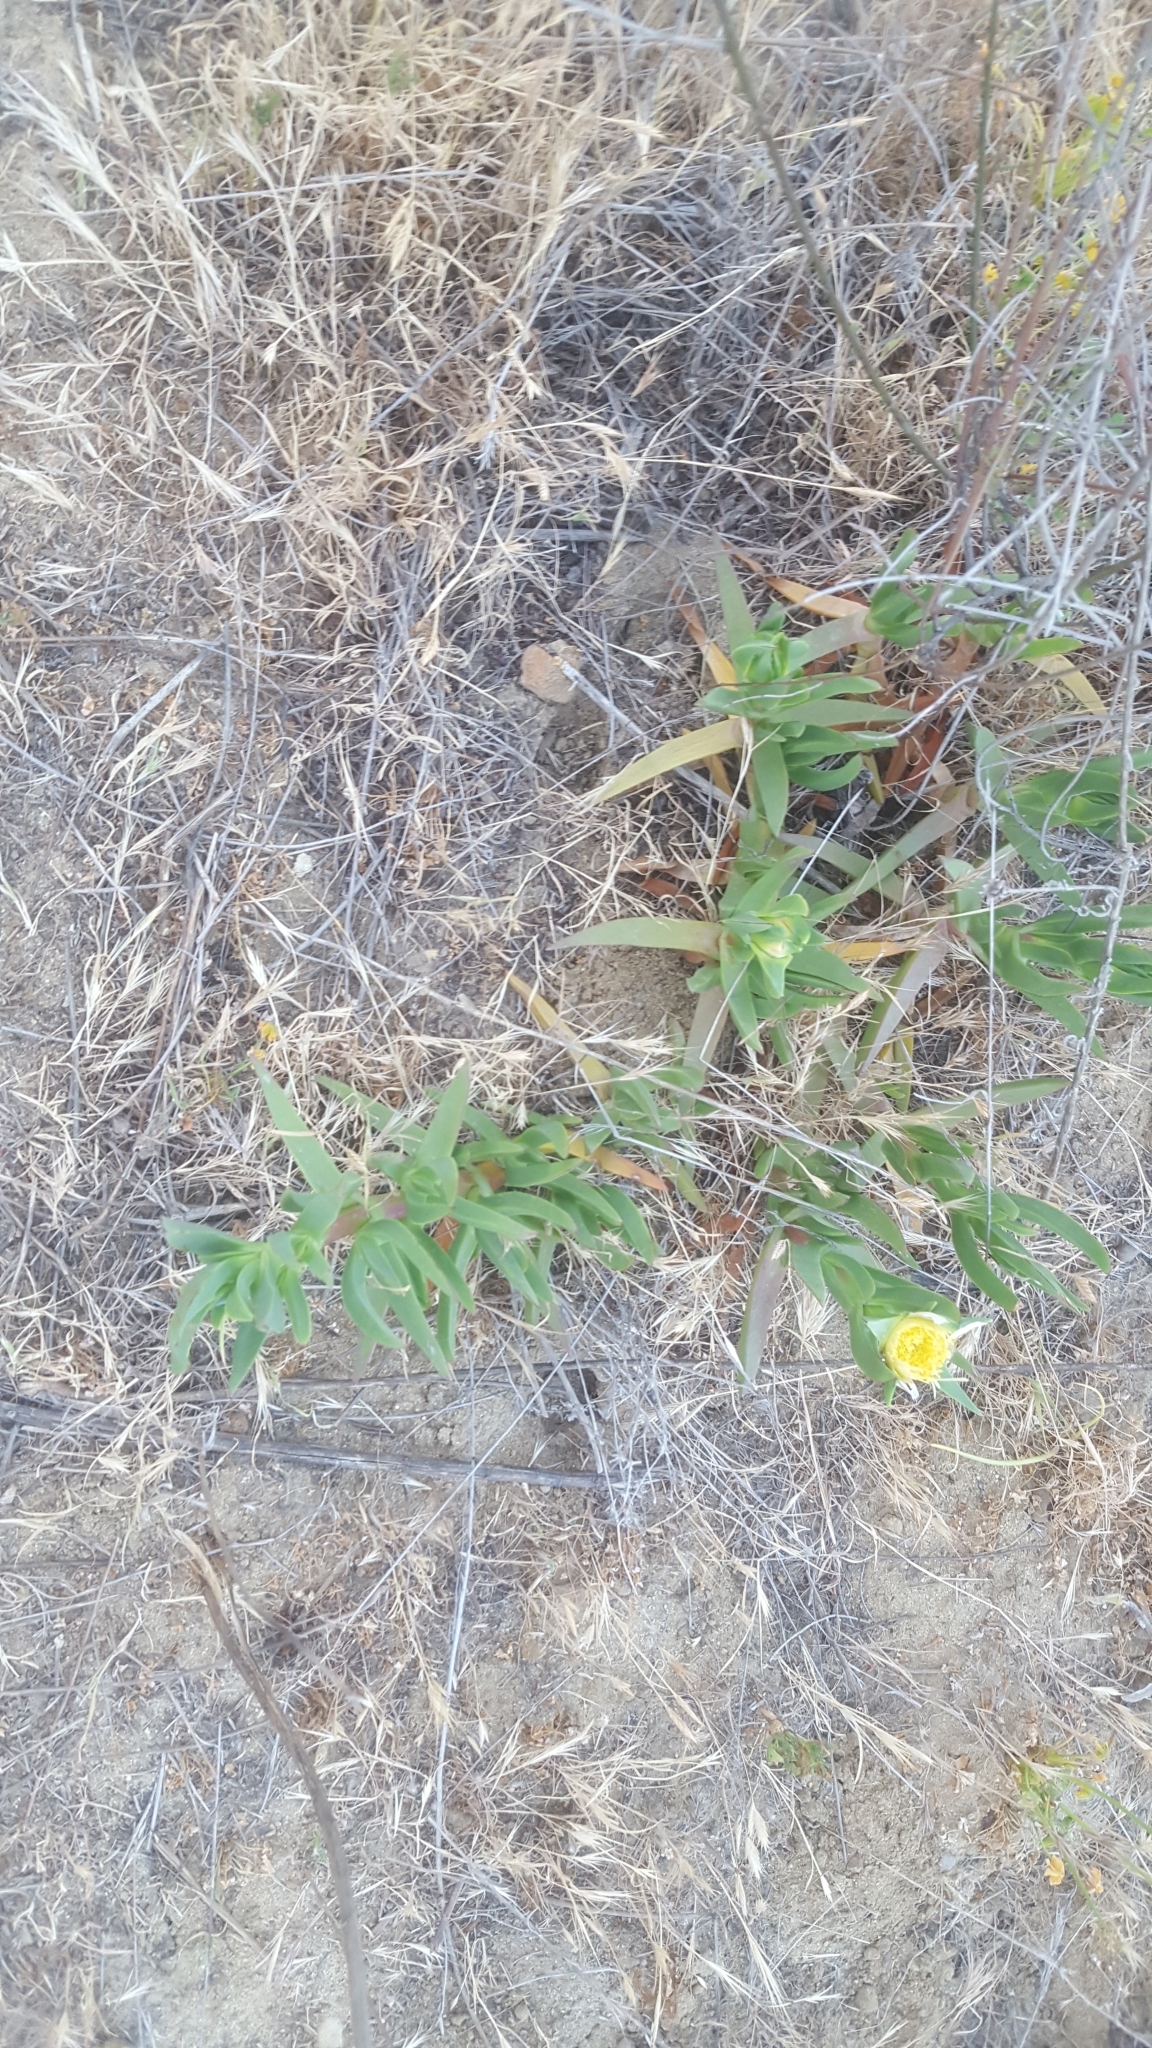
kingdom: Plantae
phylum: Tracheophyta
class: Magnoliopsida
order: Caryophyllales
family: Aizoaceae
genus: Carpobrotus
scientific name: Carpobrotus edulis
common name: Hottentot-fig
